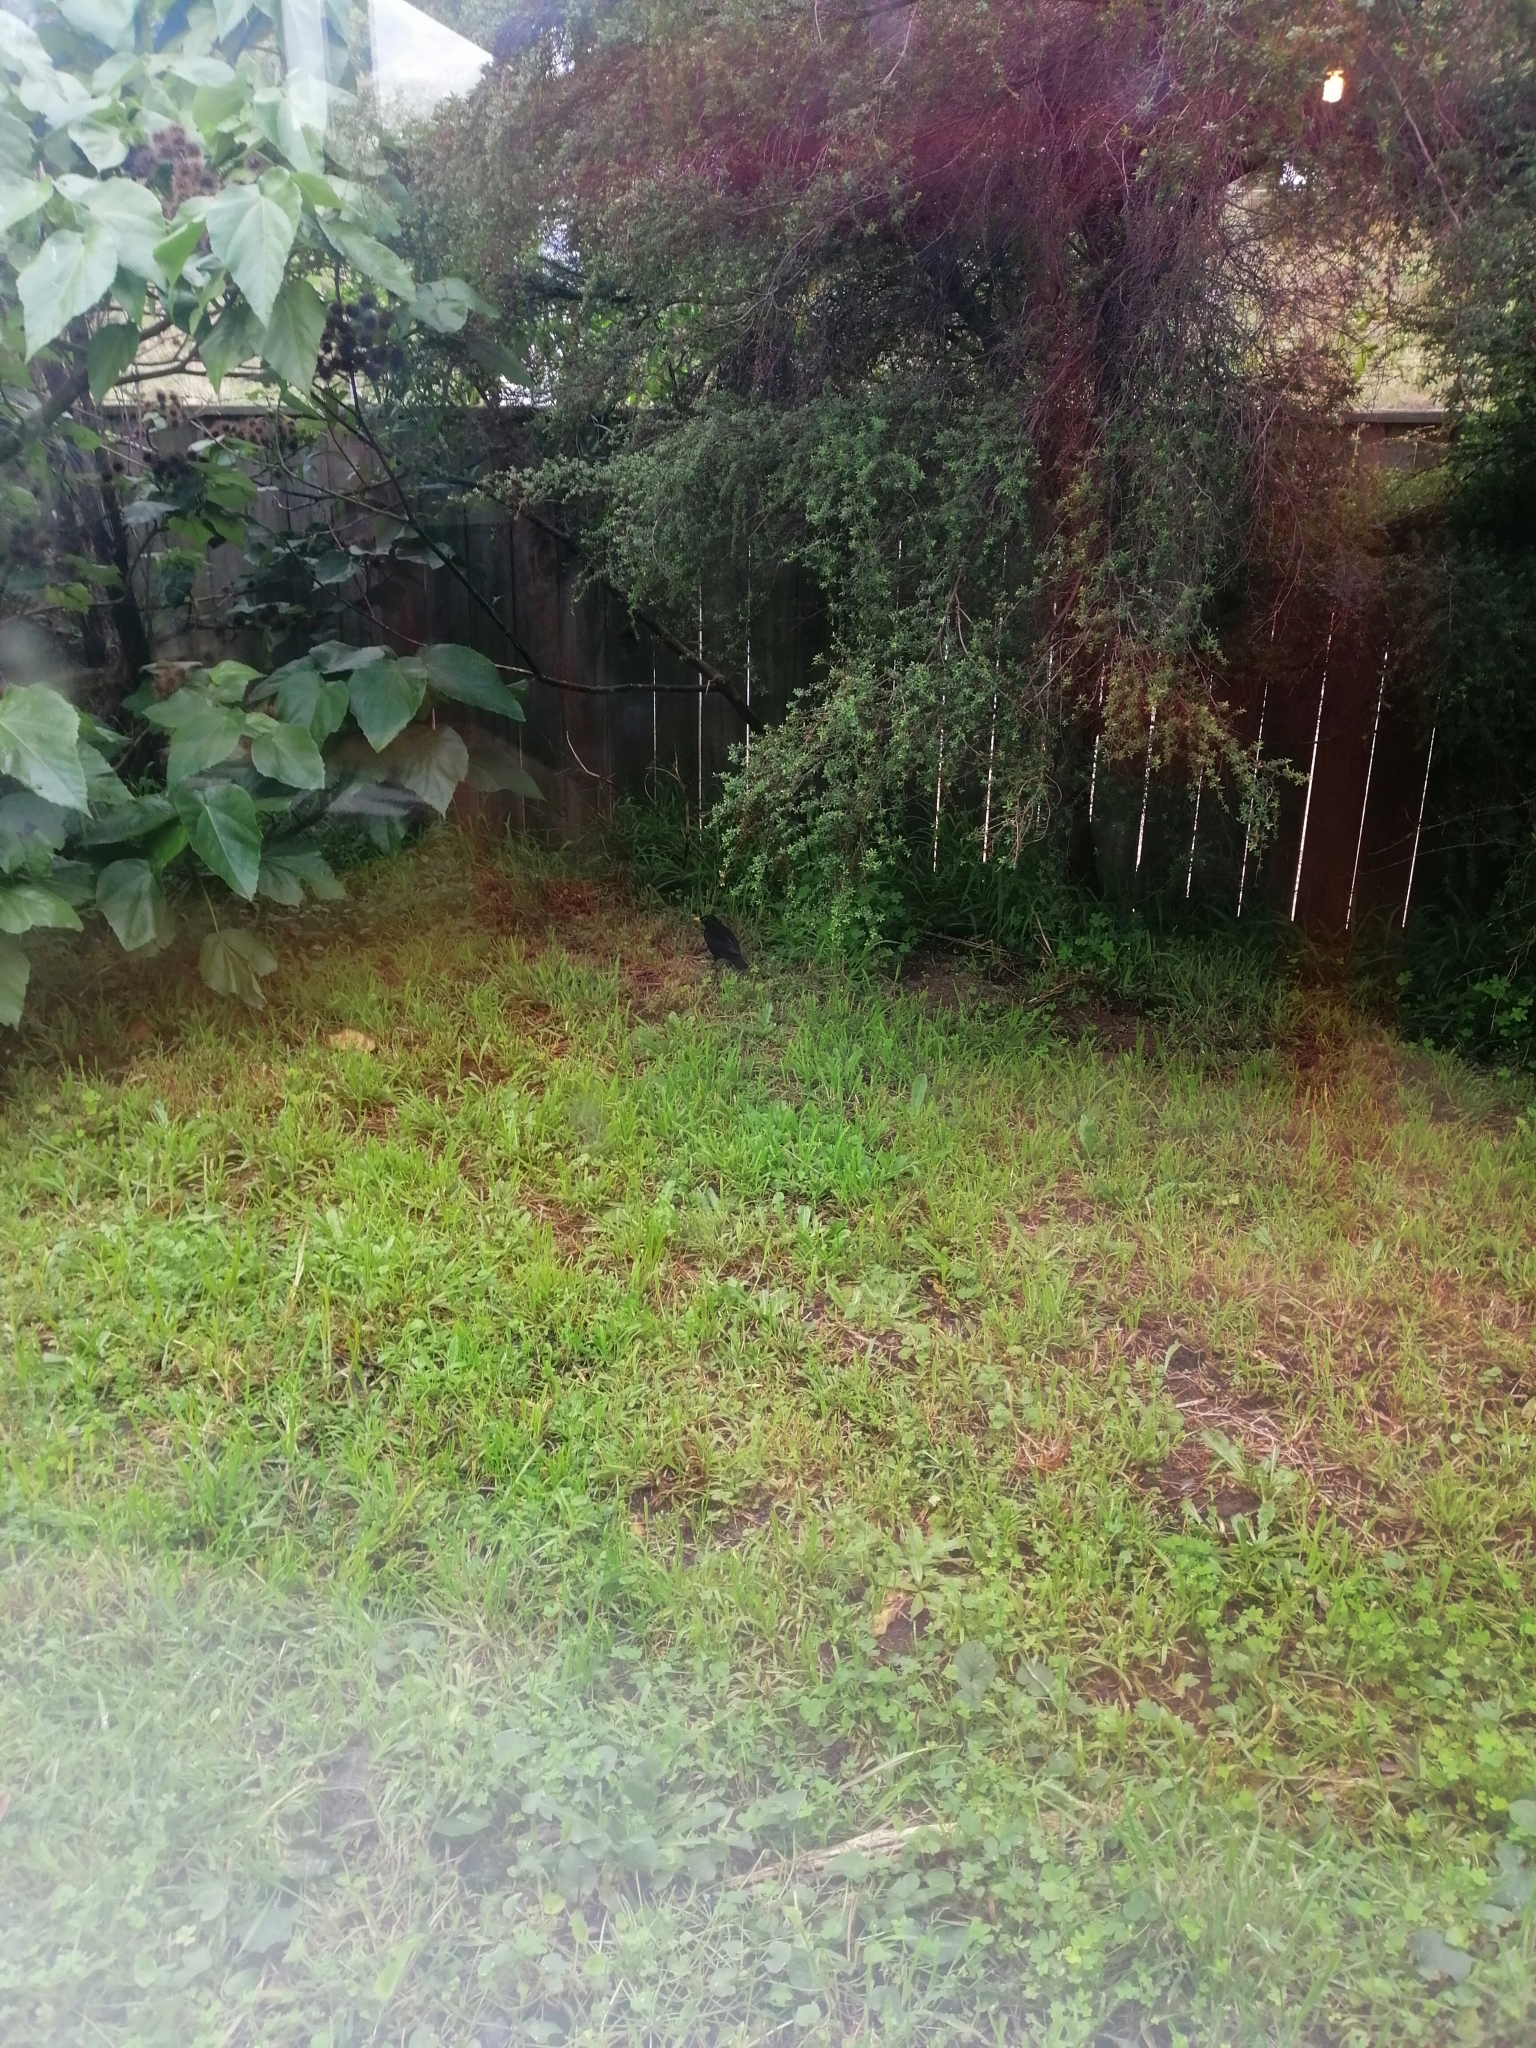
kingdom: Animalia
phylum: Chordata
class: Aves
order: Passeriformes
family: Turdidae
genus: Turdus
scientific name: Turdus merula
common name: Common blackbird
